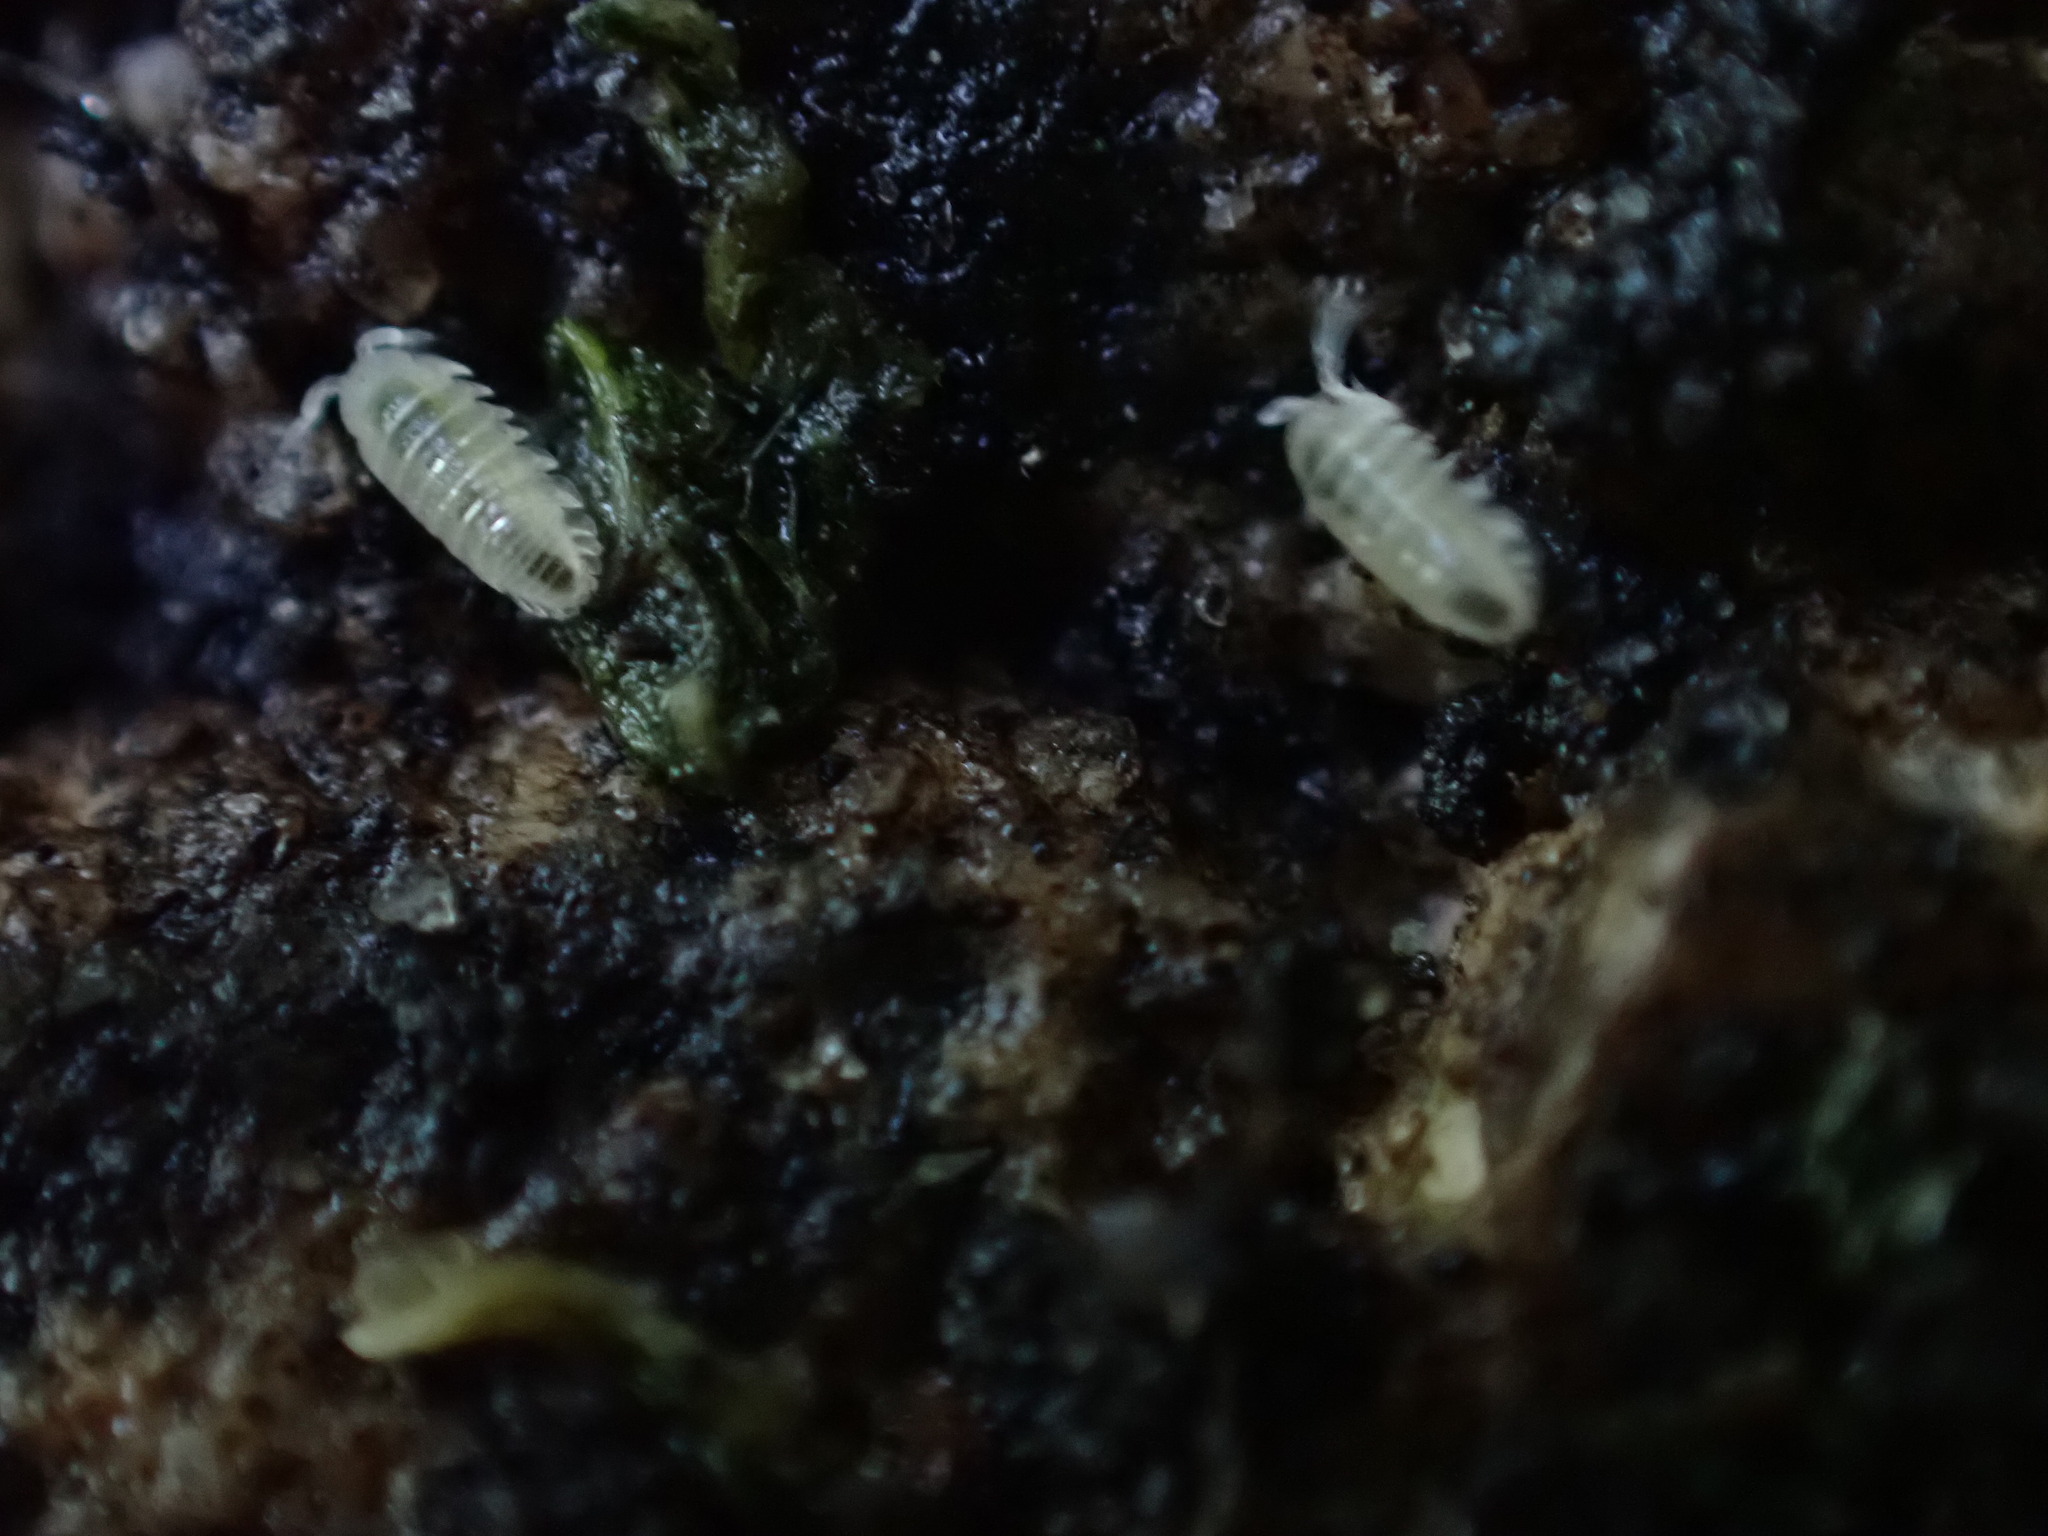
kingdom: Animalia
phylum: Arthropoda
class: Malacostraca
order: Isopoda
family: Armadillidiidae
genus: Armadillidium
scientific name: Armadillidium vulgare
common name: Common pill woodlouse
